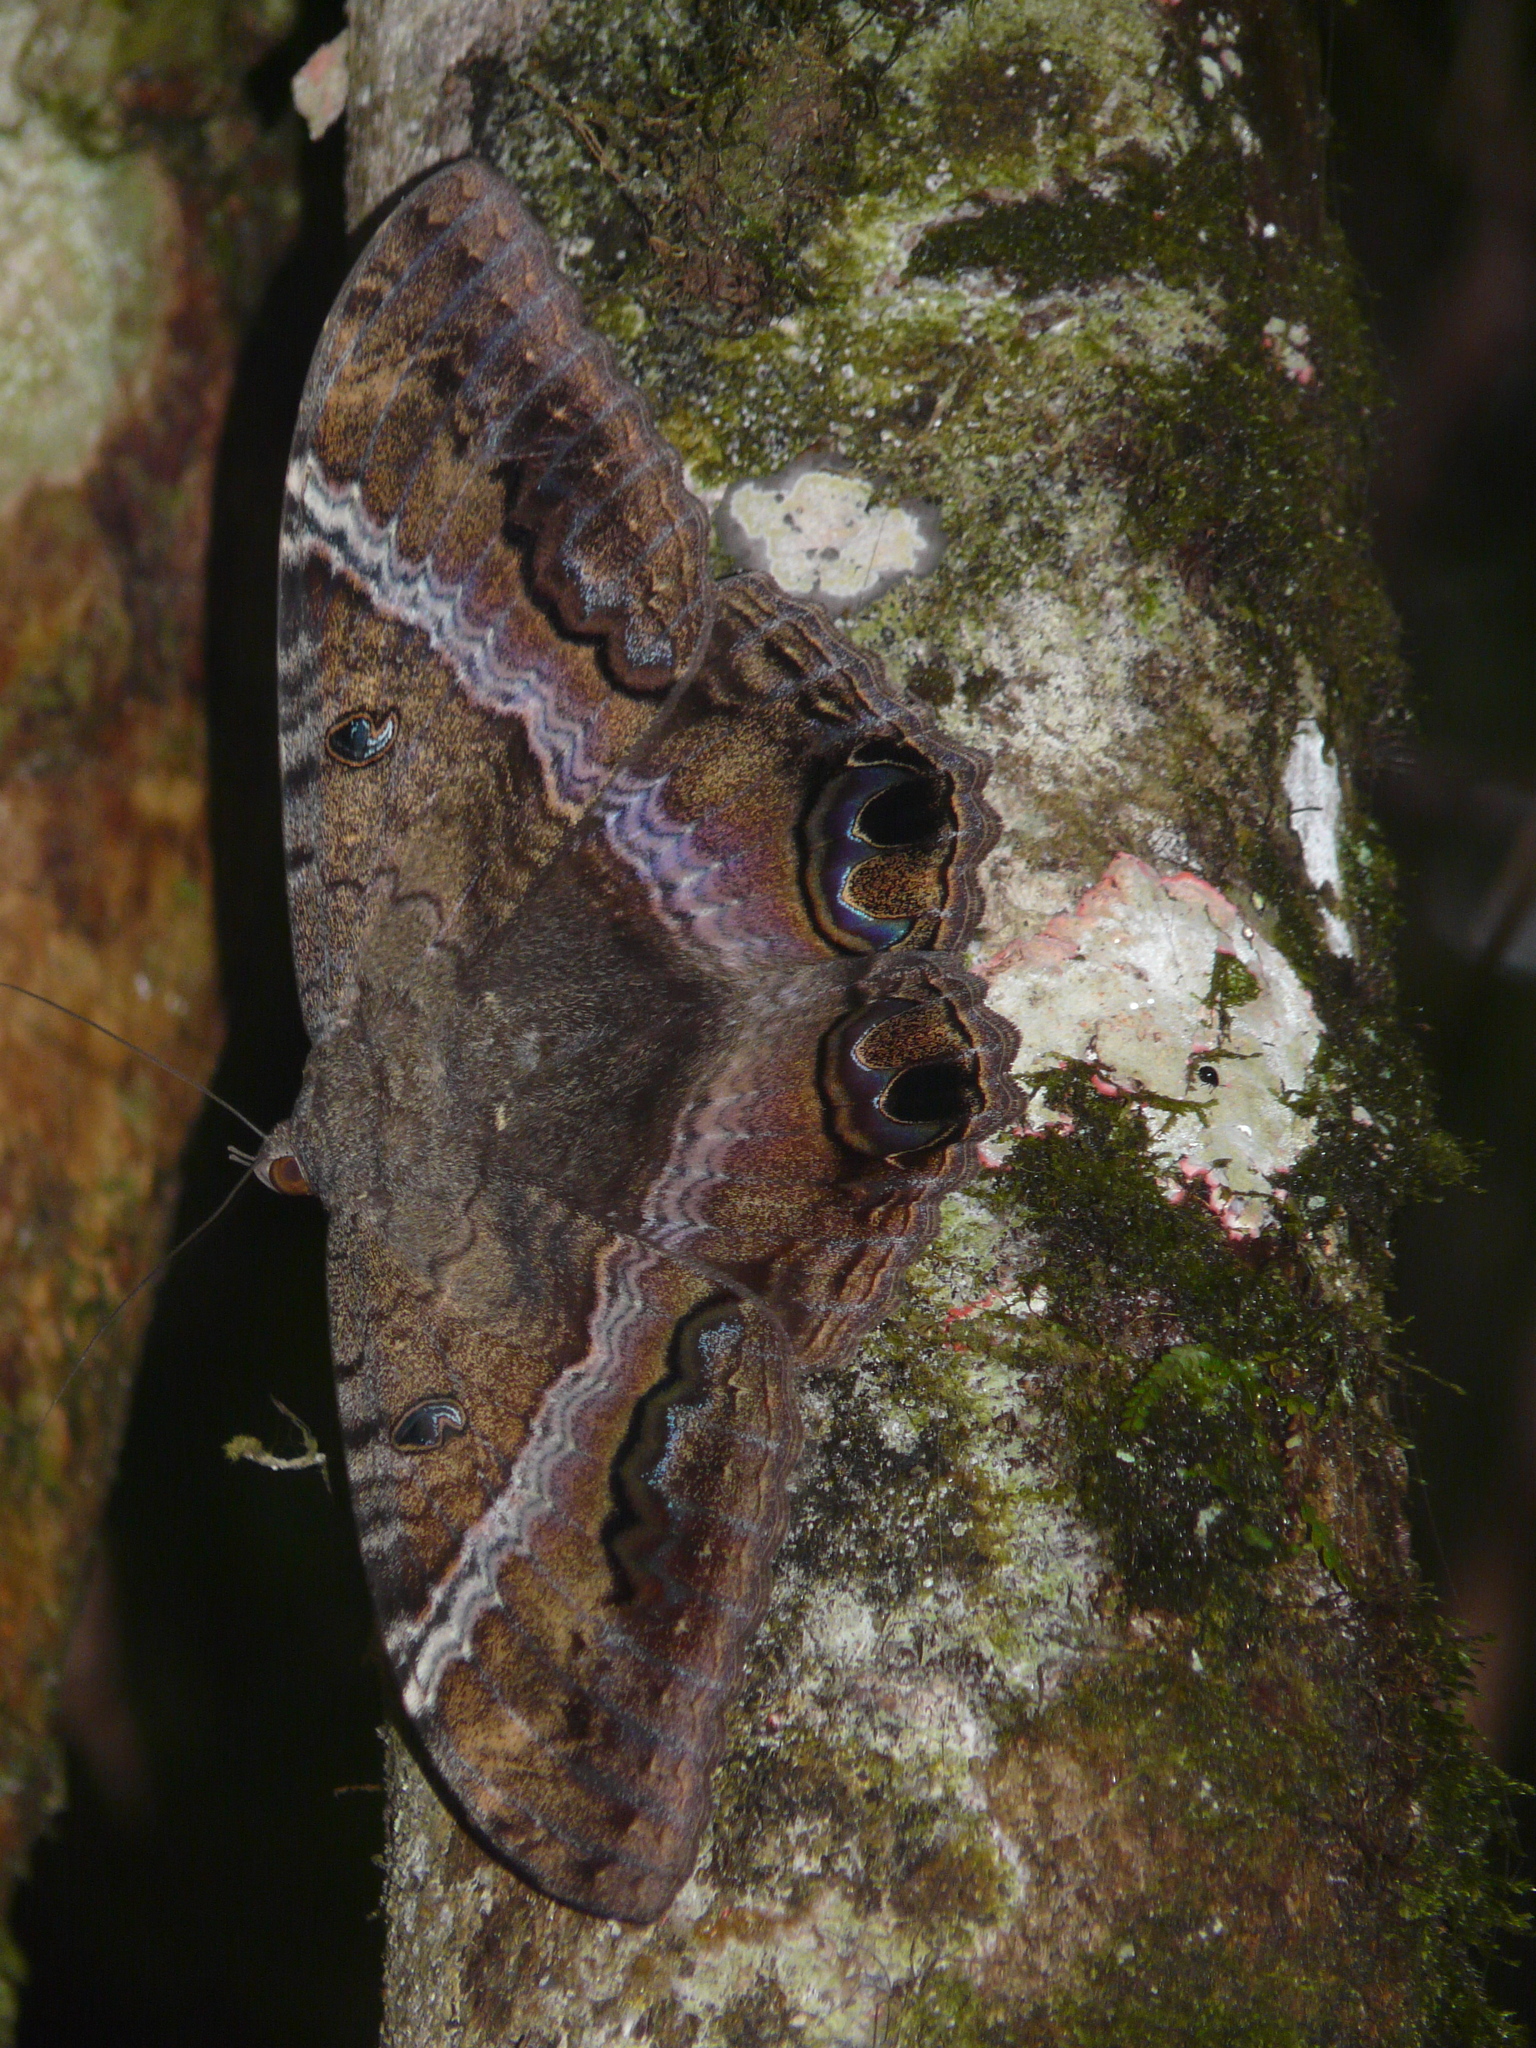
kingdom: Animalia
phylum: Arthropoda
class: Insecta
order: Lepidoptera
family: Erebidae
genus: Ascalapha
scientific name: Ascalapha odorata
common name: Black witch
